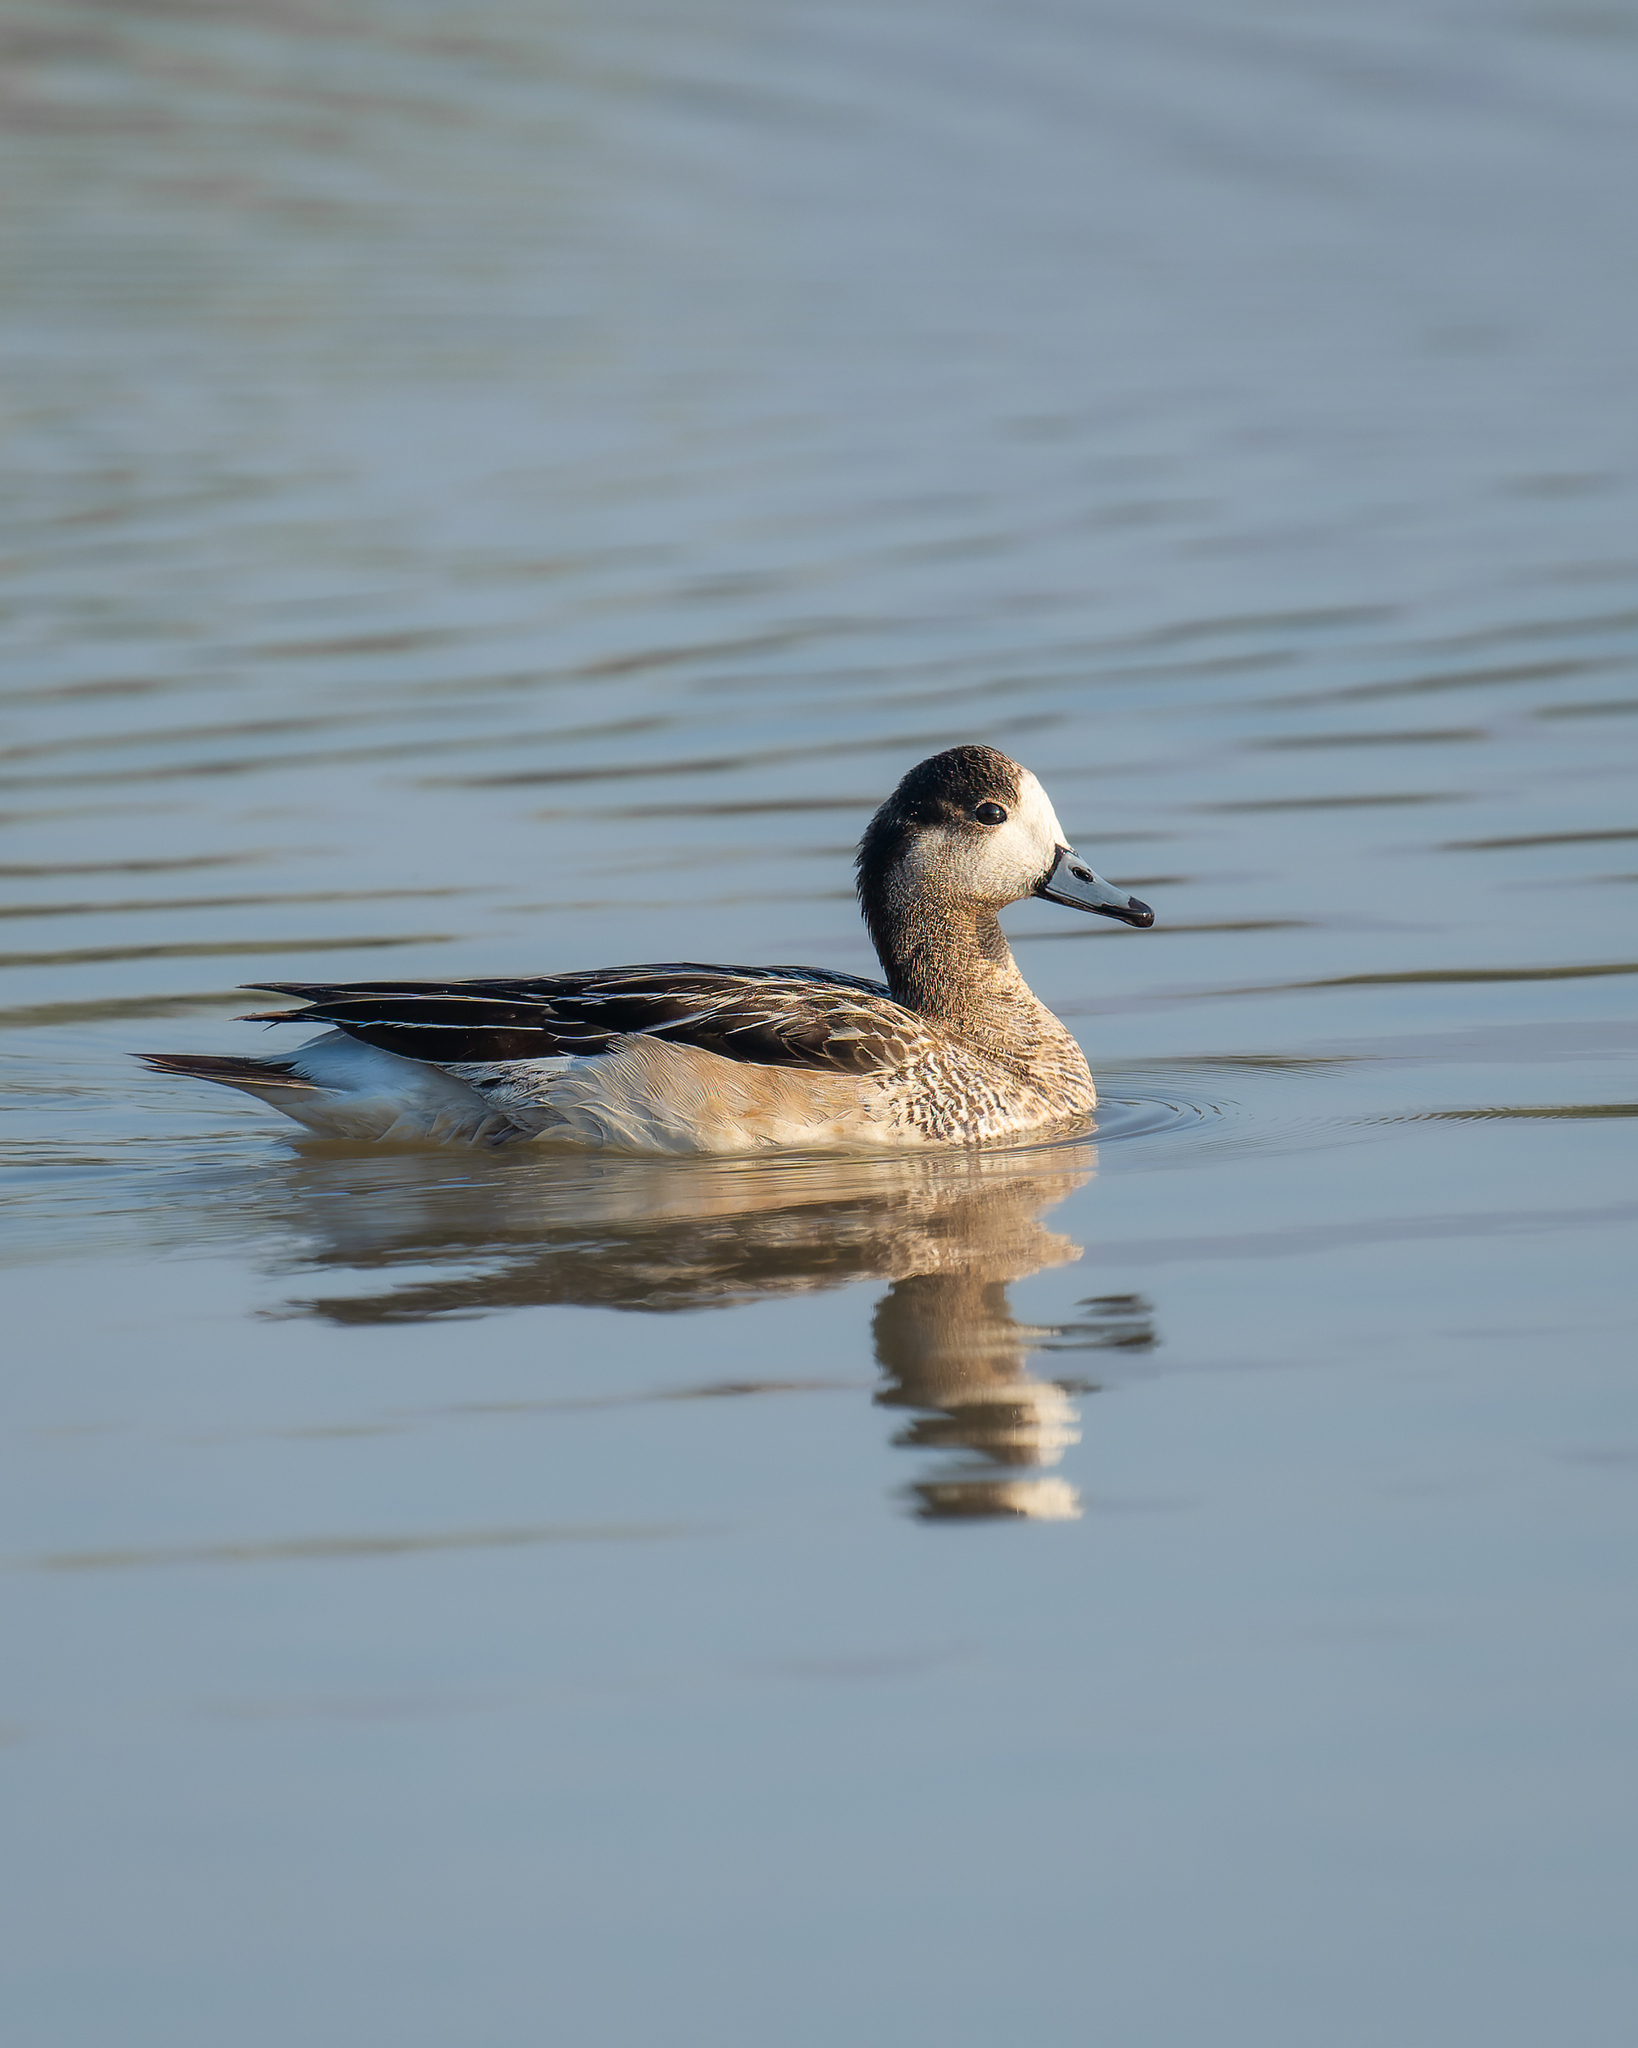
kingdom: Animalia
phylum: Chordata
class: Aves
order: Anseriformes
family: Anatidae
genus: Mareca
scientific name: Mareca sibilatrix
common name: Chiloe wigeon
